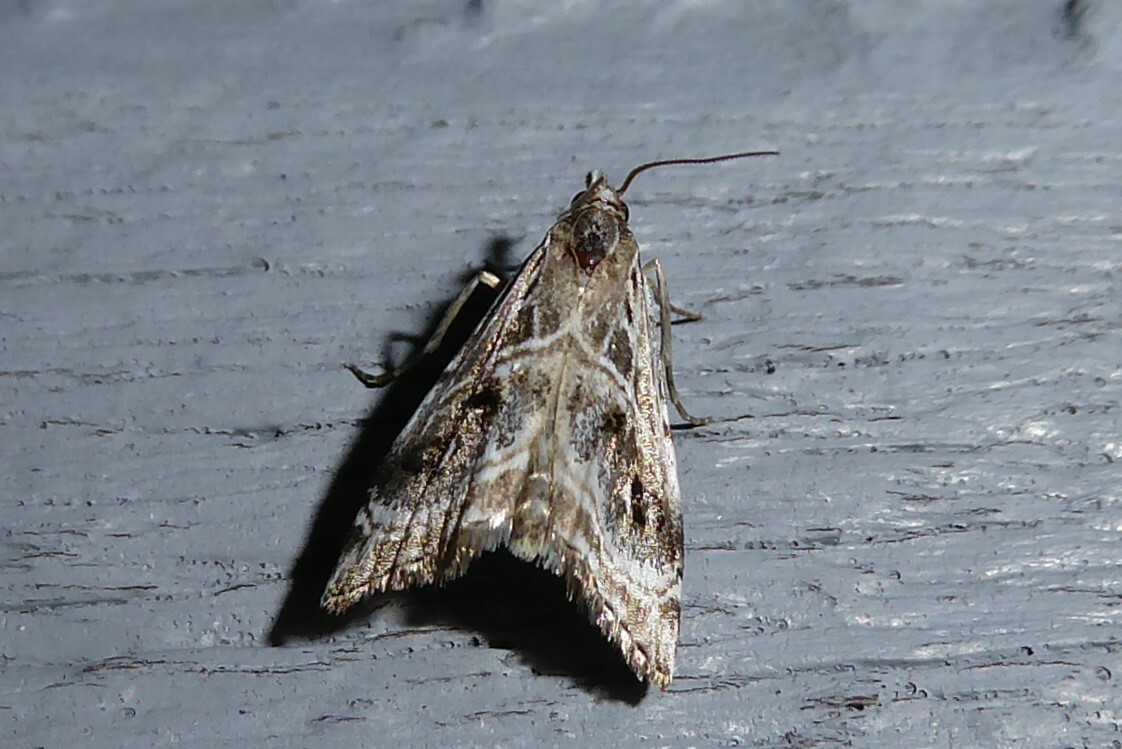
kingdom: Animalia
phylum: Arthropoda
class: Insecta
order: Lepidoptera
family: Crambidae
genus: Gadira
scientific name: Gadira acerella
